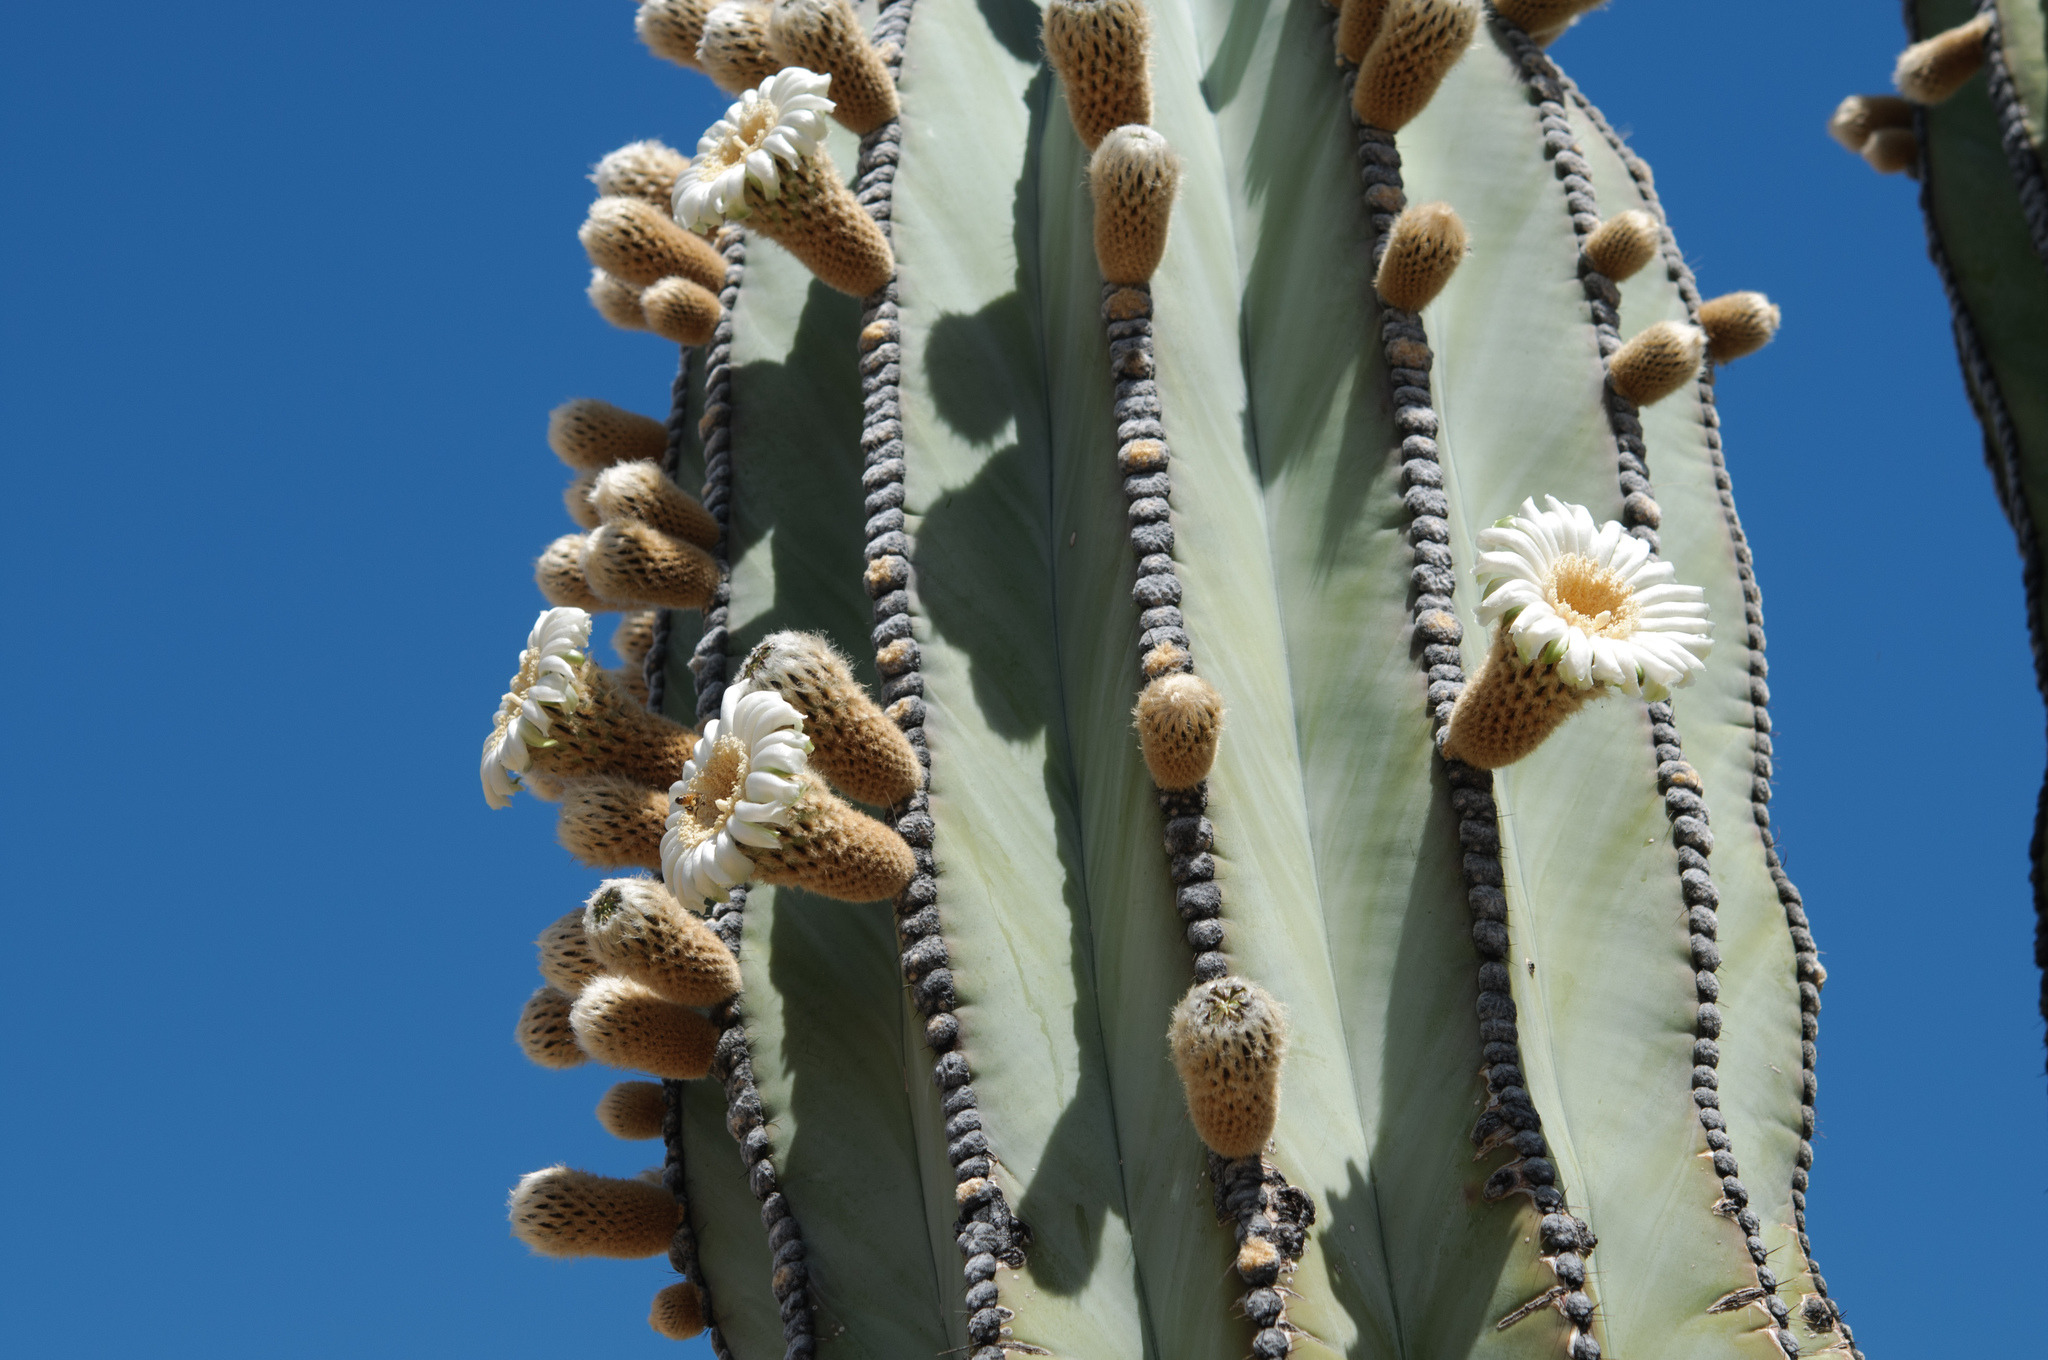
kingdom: Plantae
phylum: Tracheophyta
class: Magnoliopsida
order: Caryophyllales
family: Cactaceae
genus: Pachycereus
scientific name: Pachycereus pringlei
